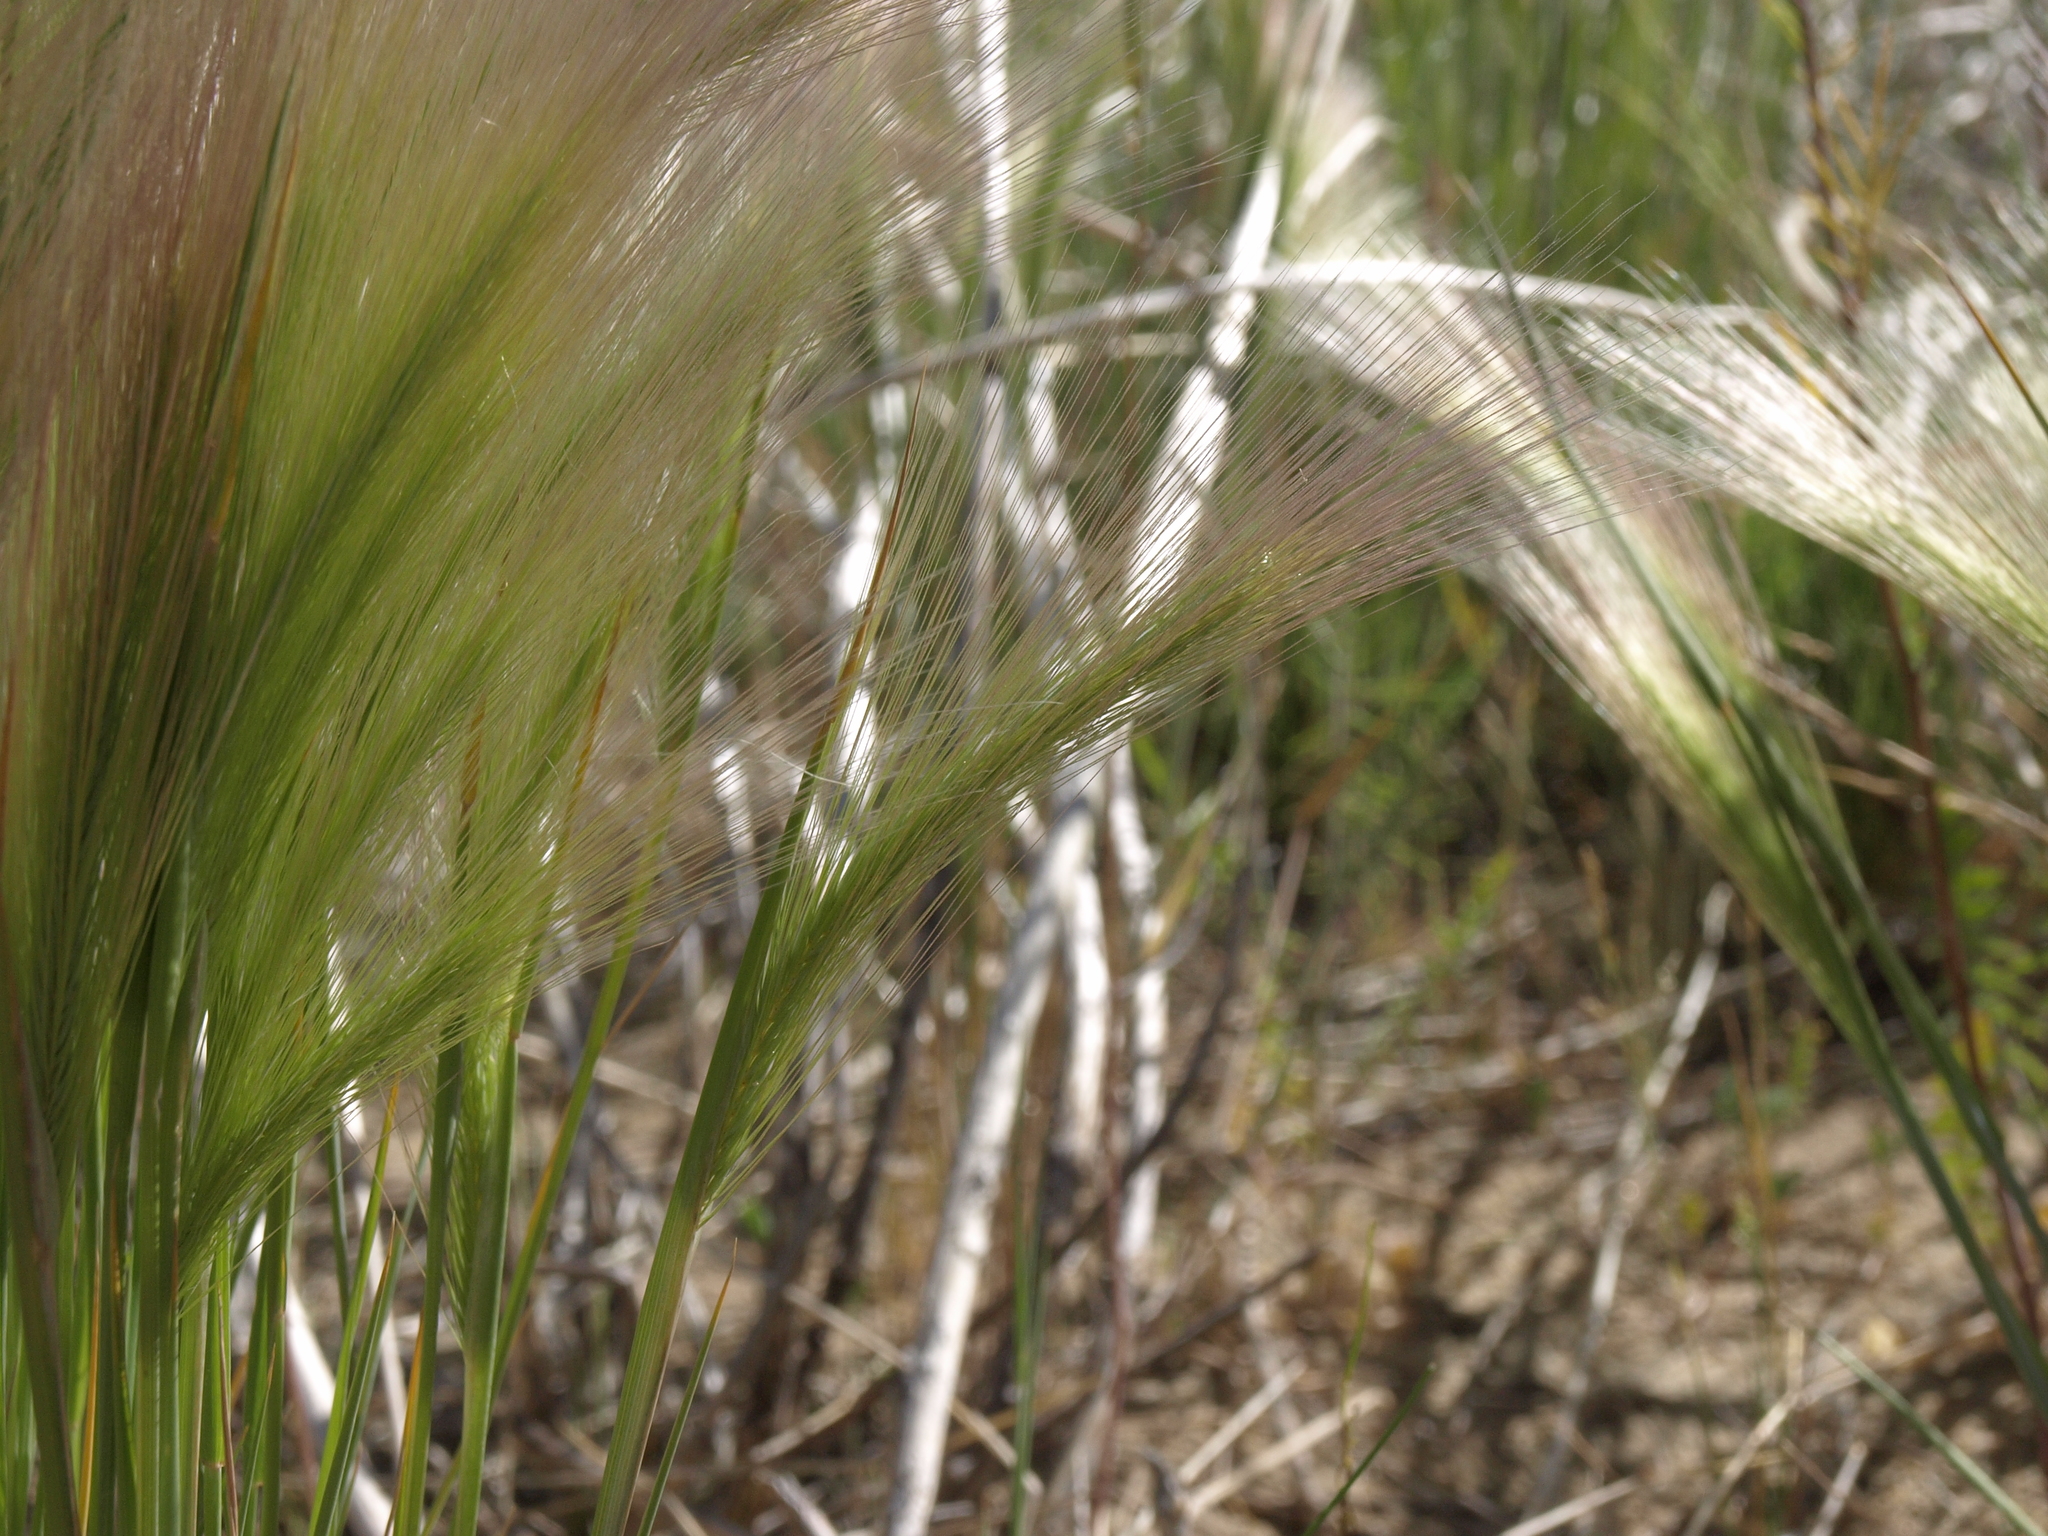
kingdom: Plantae
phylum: Tracheophyta
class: Liliopsida
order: Poales
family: Poaceae
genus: Hordeum
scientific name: Hordeum jubatum
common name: Foxtail barley
